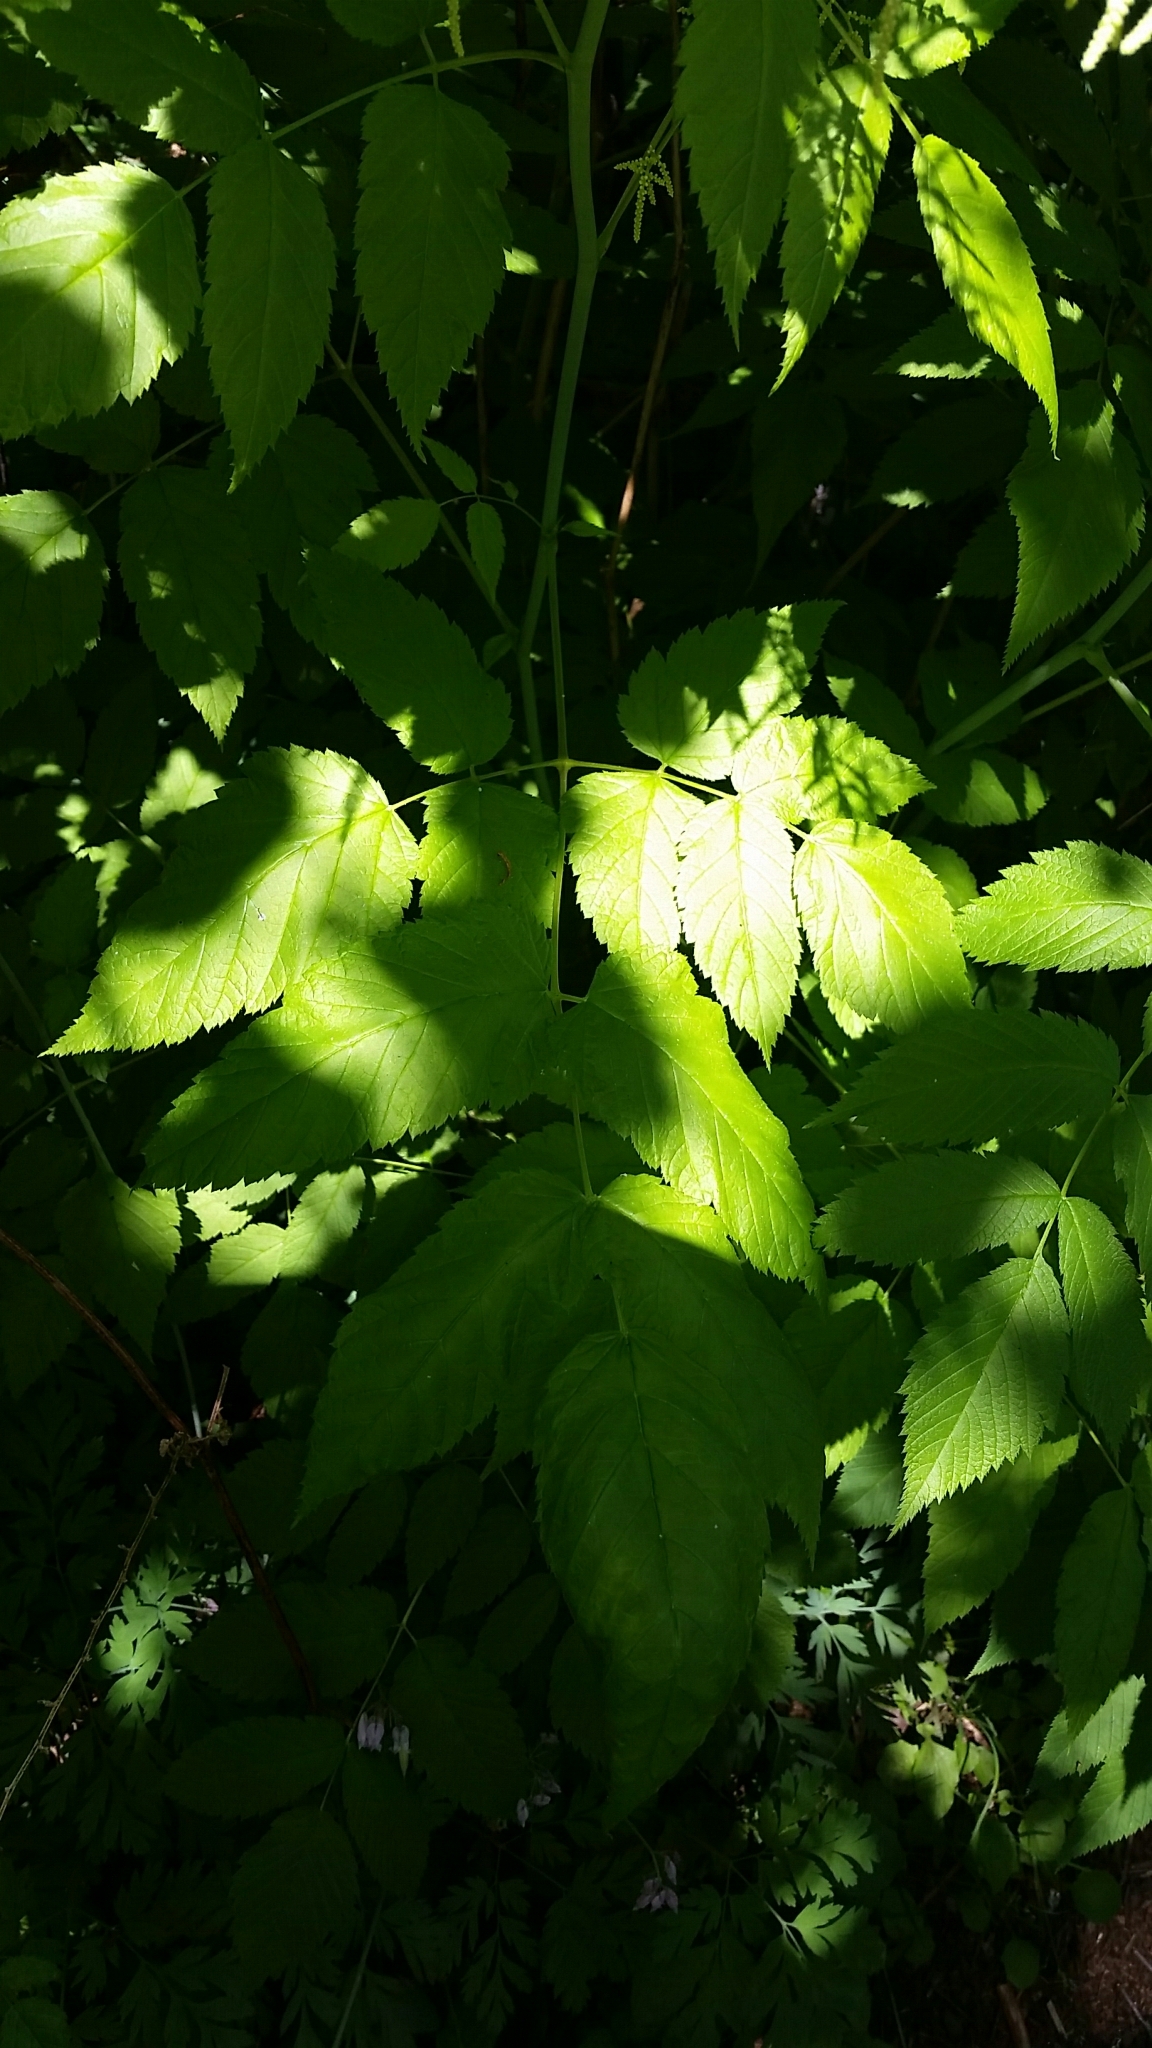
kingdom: Plantae
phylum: Tracheophyta
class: Magnoliopsida
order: Rosales
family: Rosaceae
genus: Aruncus
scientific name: Aruncus dioicus
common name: Buck's-beard
